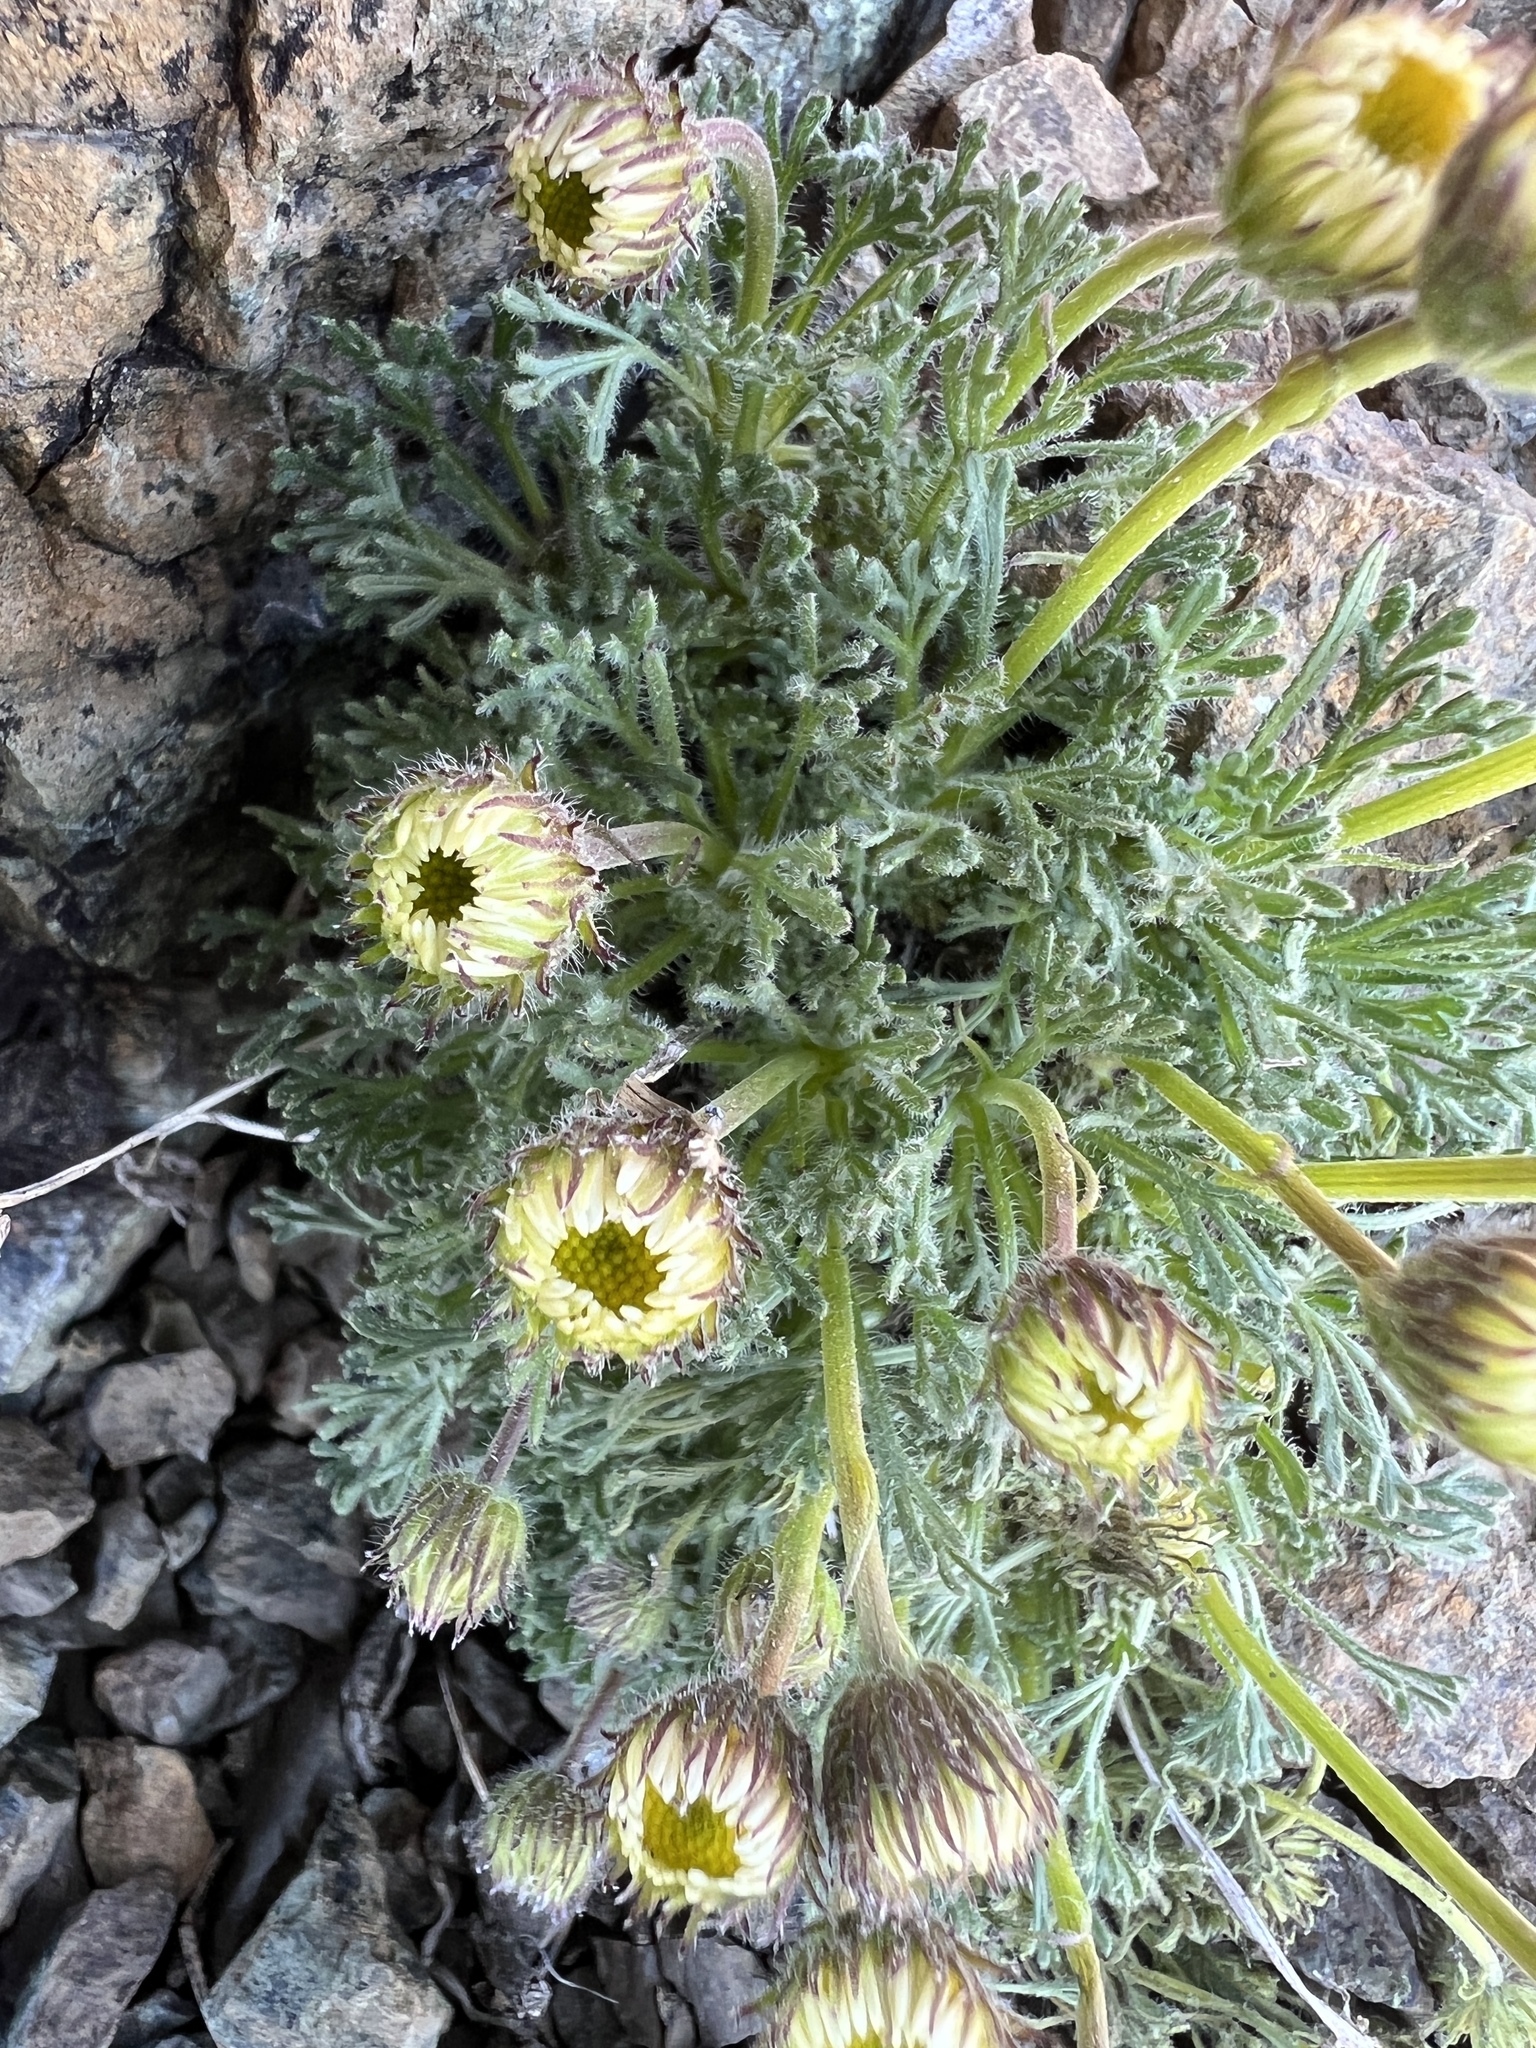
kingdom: Plantae
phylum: Tracheophyta
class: Magnoliopsida
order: Asterales
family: Asteraceae
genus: Erigeron
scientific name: Erigeron compositus
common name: Dwarf mountain fleabane
